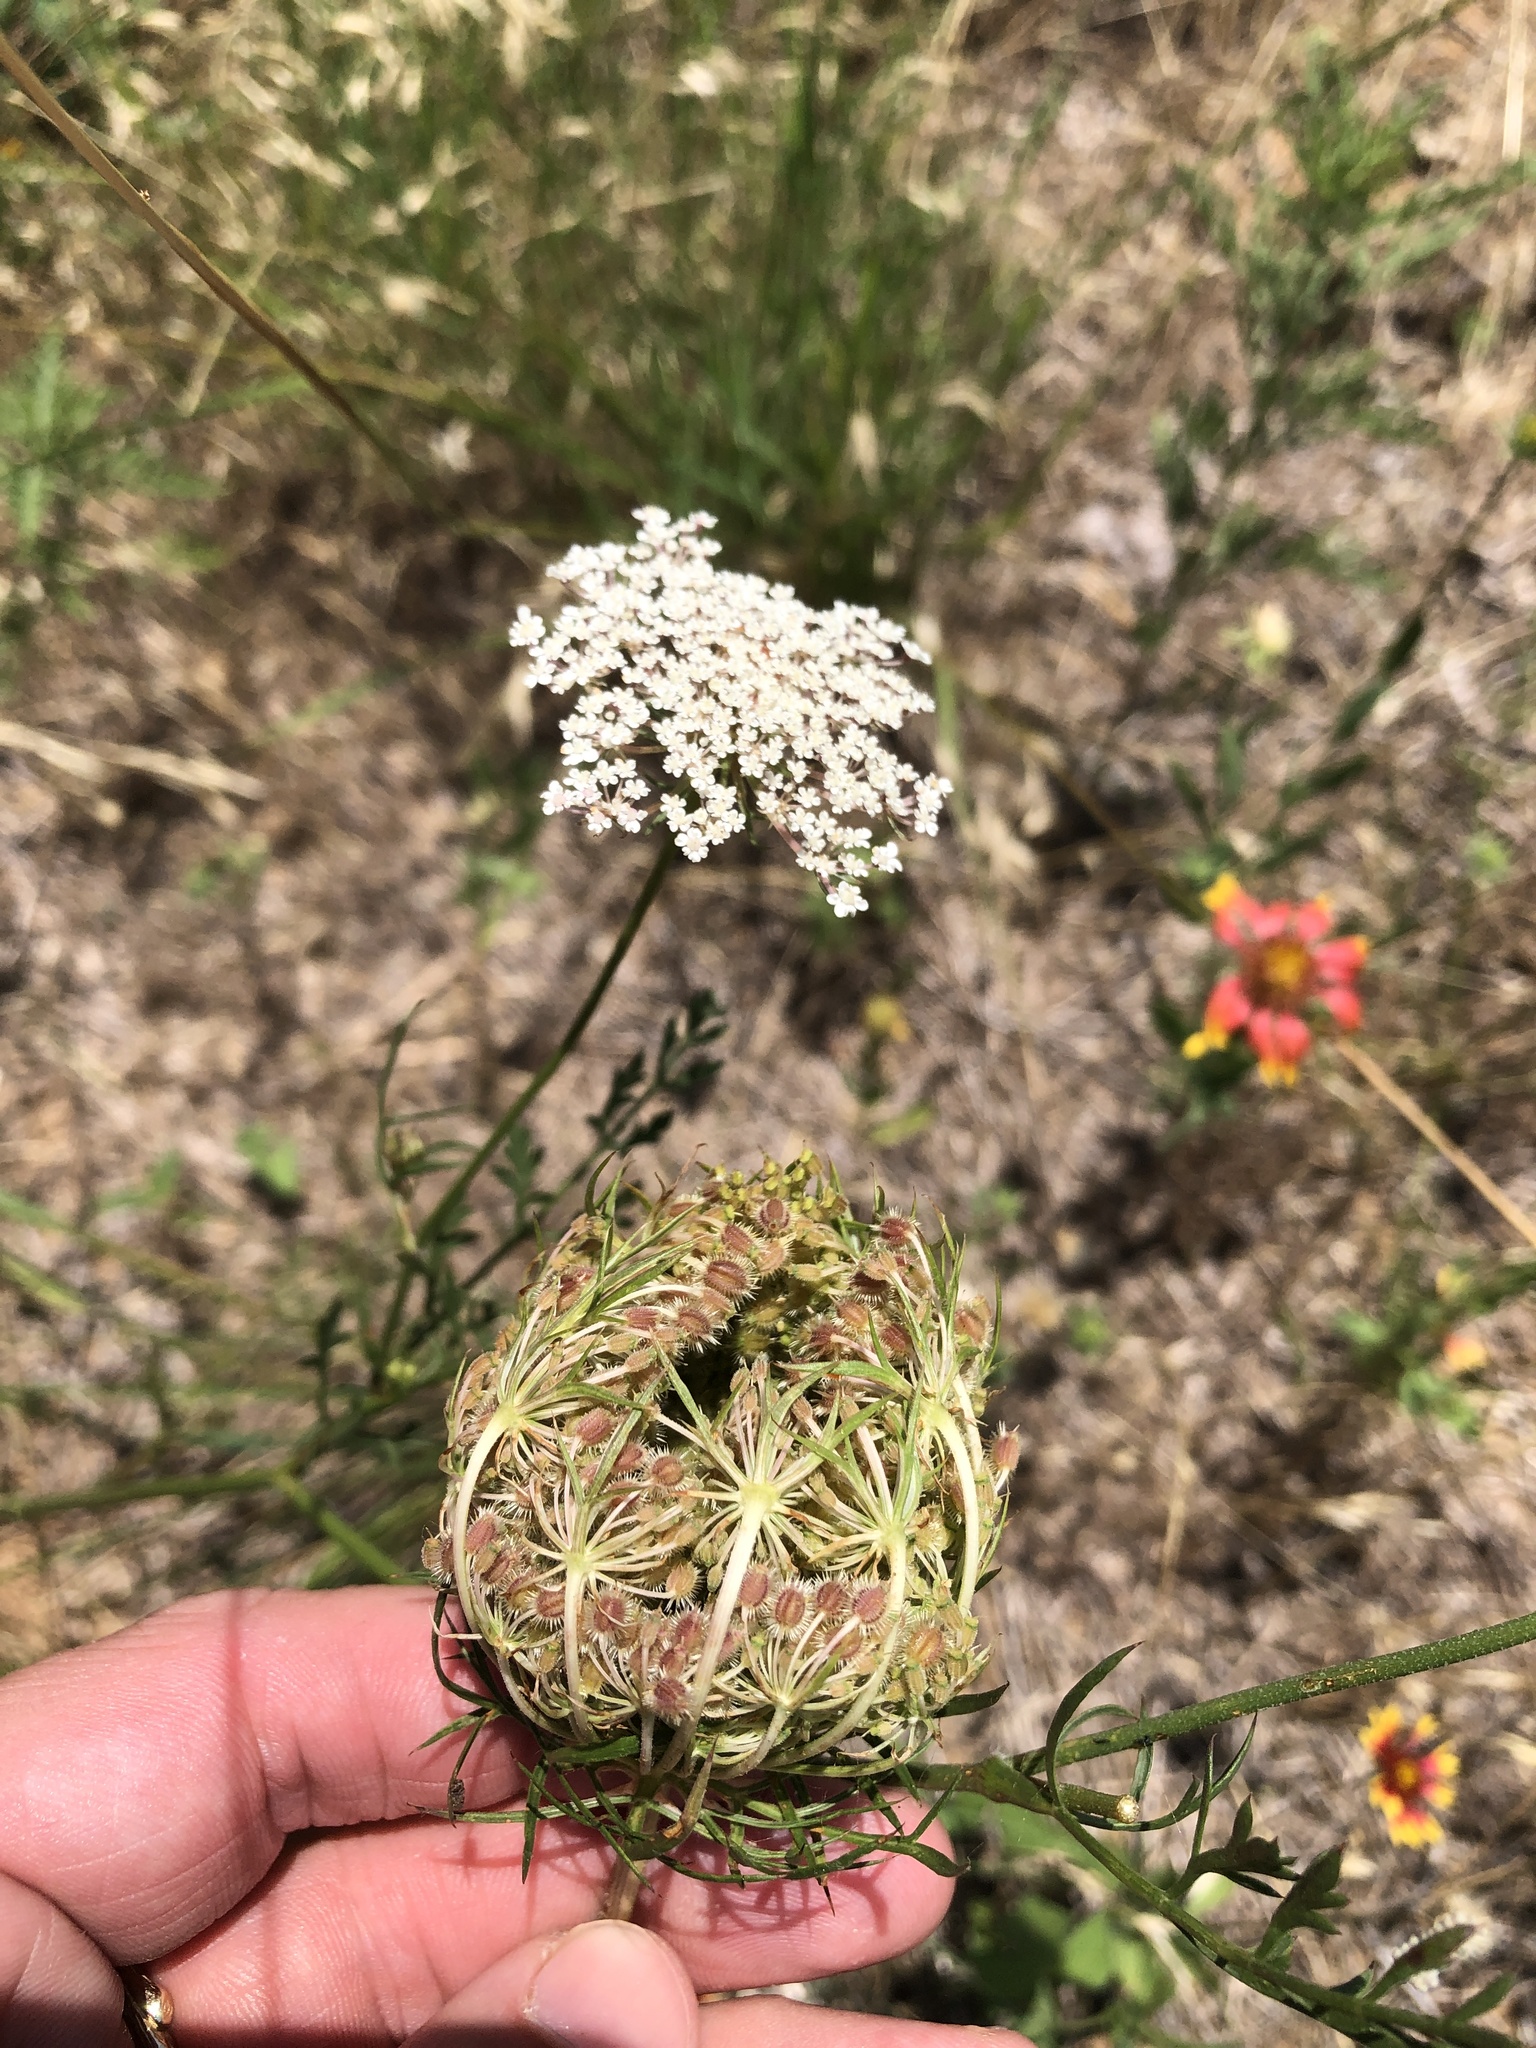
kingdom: Plantae
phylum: Tracheophyta
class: Magnoliopsida
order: Apiales
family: Apiaceae
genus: Daucus
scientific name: Daucus carota
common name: Wild carrot
